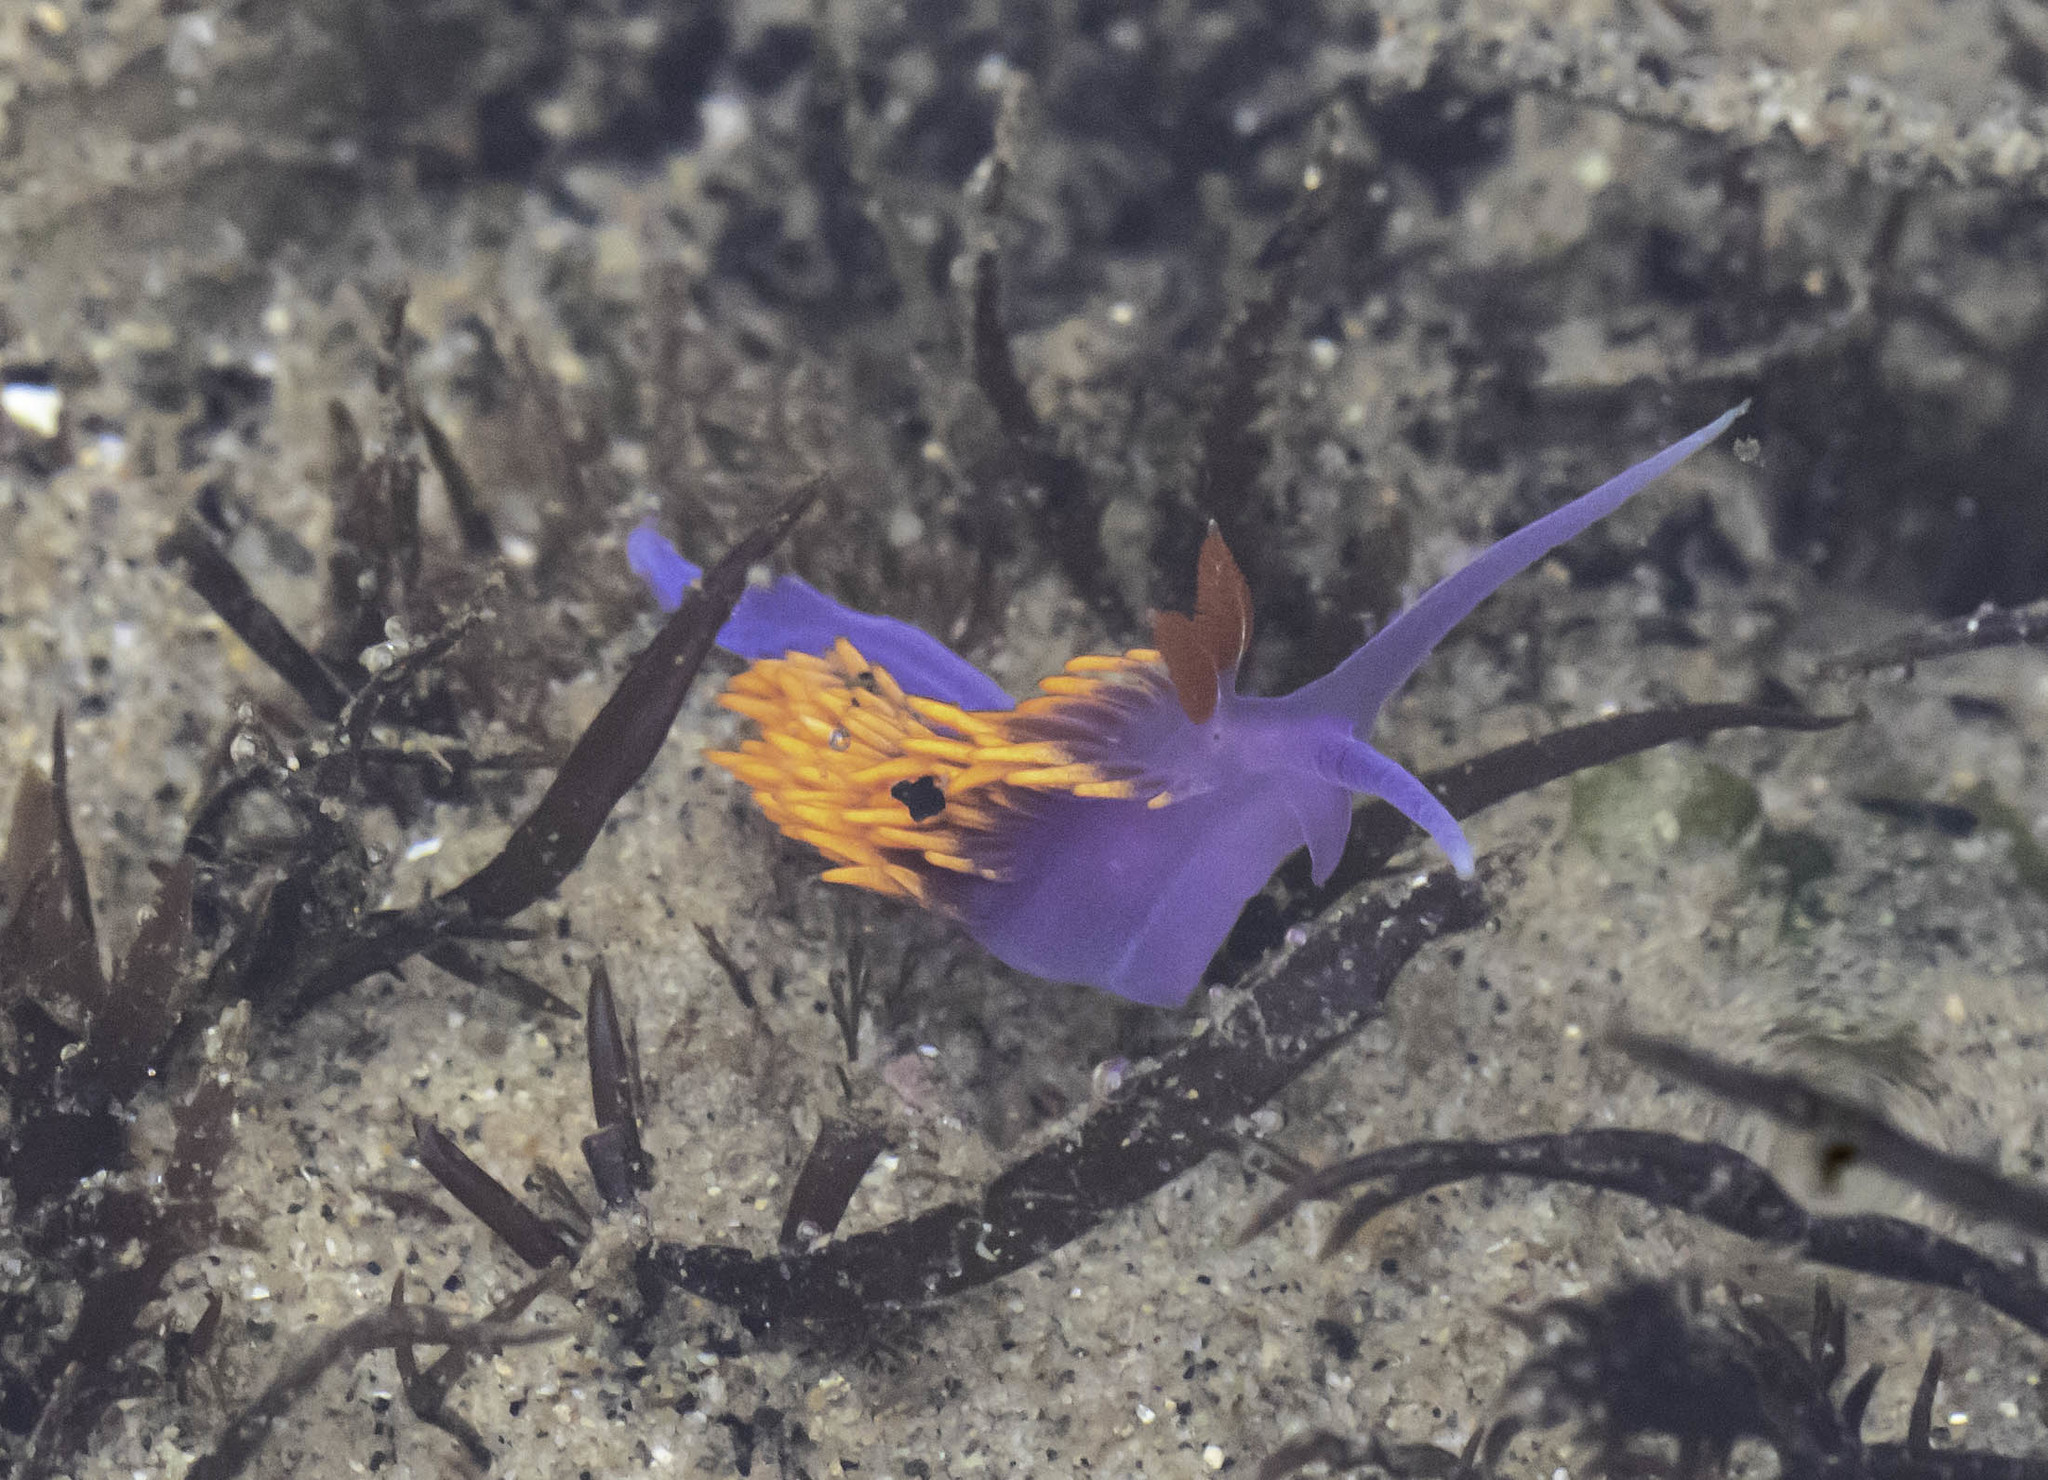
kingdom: Animalia
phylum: Mollusca
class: Gastropoda
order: Nudibranchia
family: Flabellinopsidae
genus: Flabellinopsis
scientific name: Flabellinopsis iodinea
